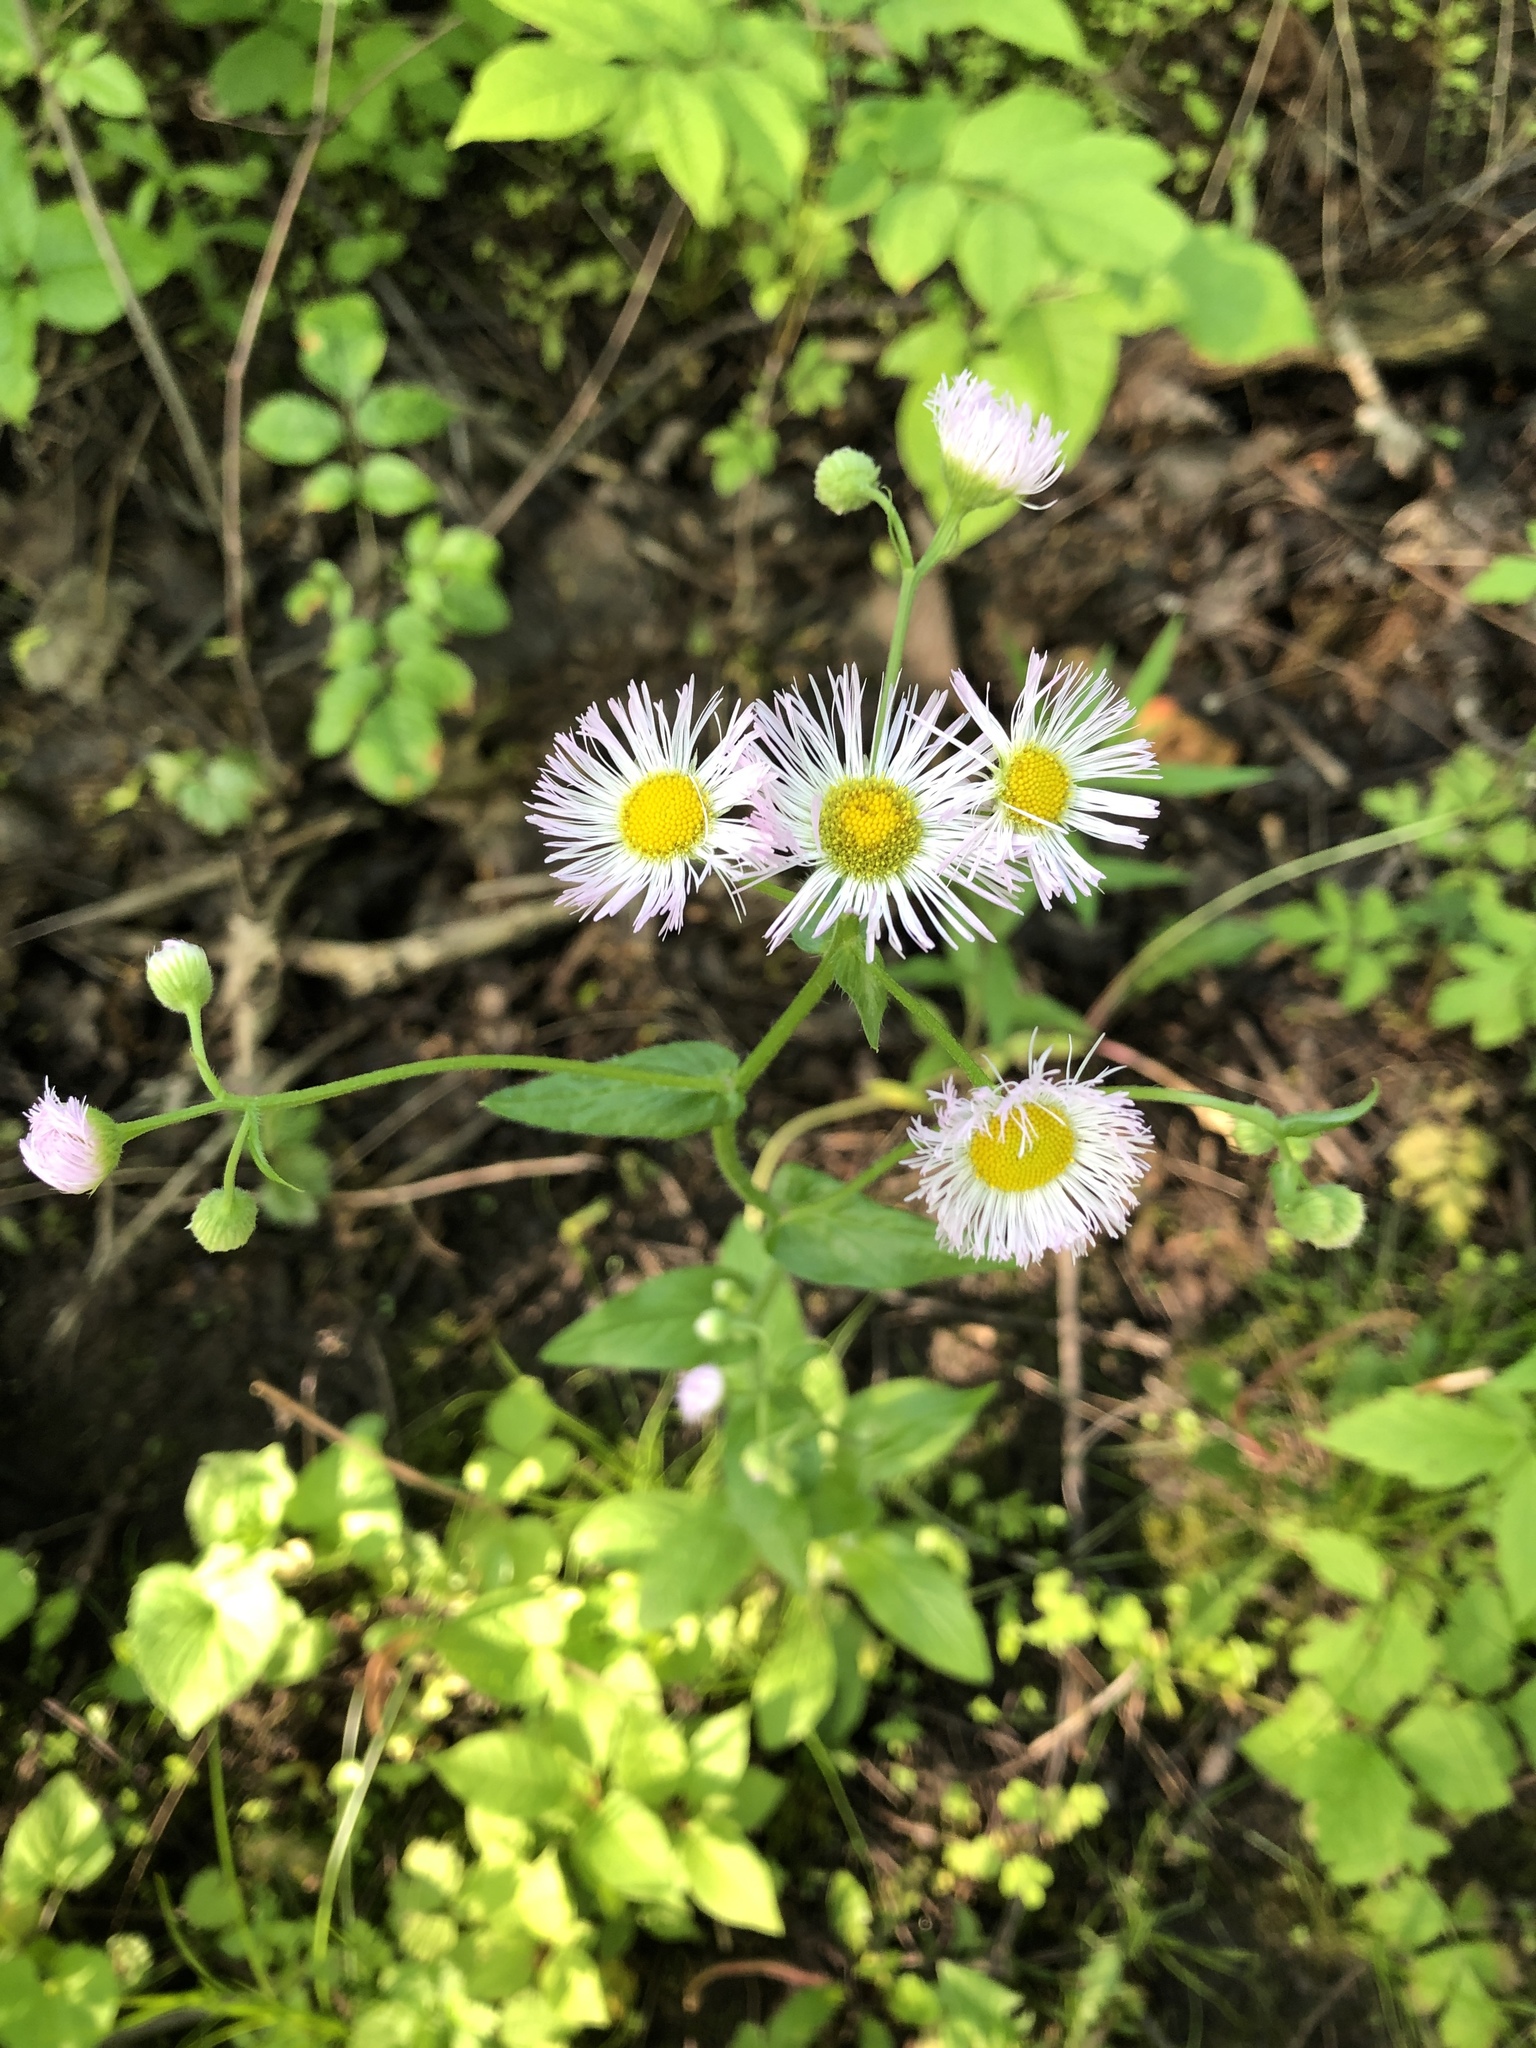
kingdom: Plantae
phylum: Tracheophyta
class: Magnoliopsida
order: Asterales
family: Asteraceae
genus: Erigeron
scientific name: Erigeron philadelphicus
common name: Robin's-plantain
